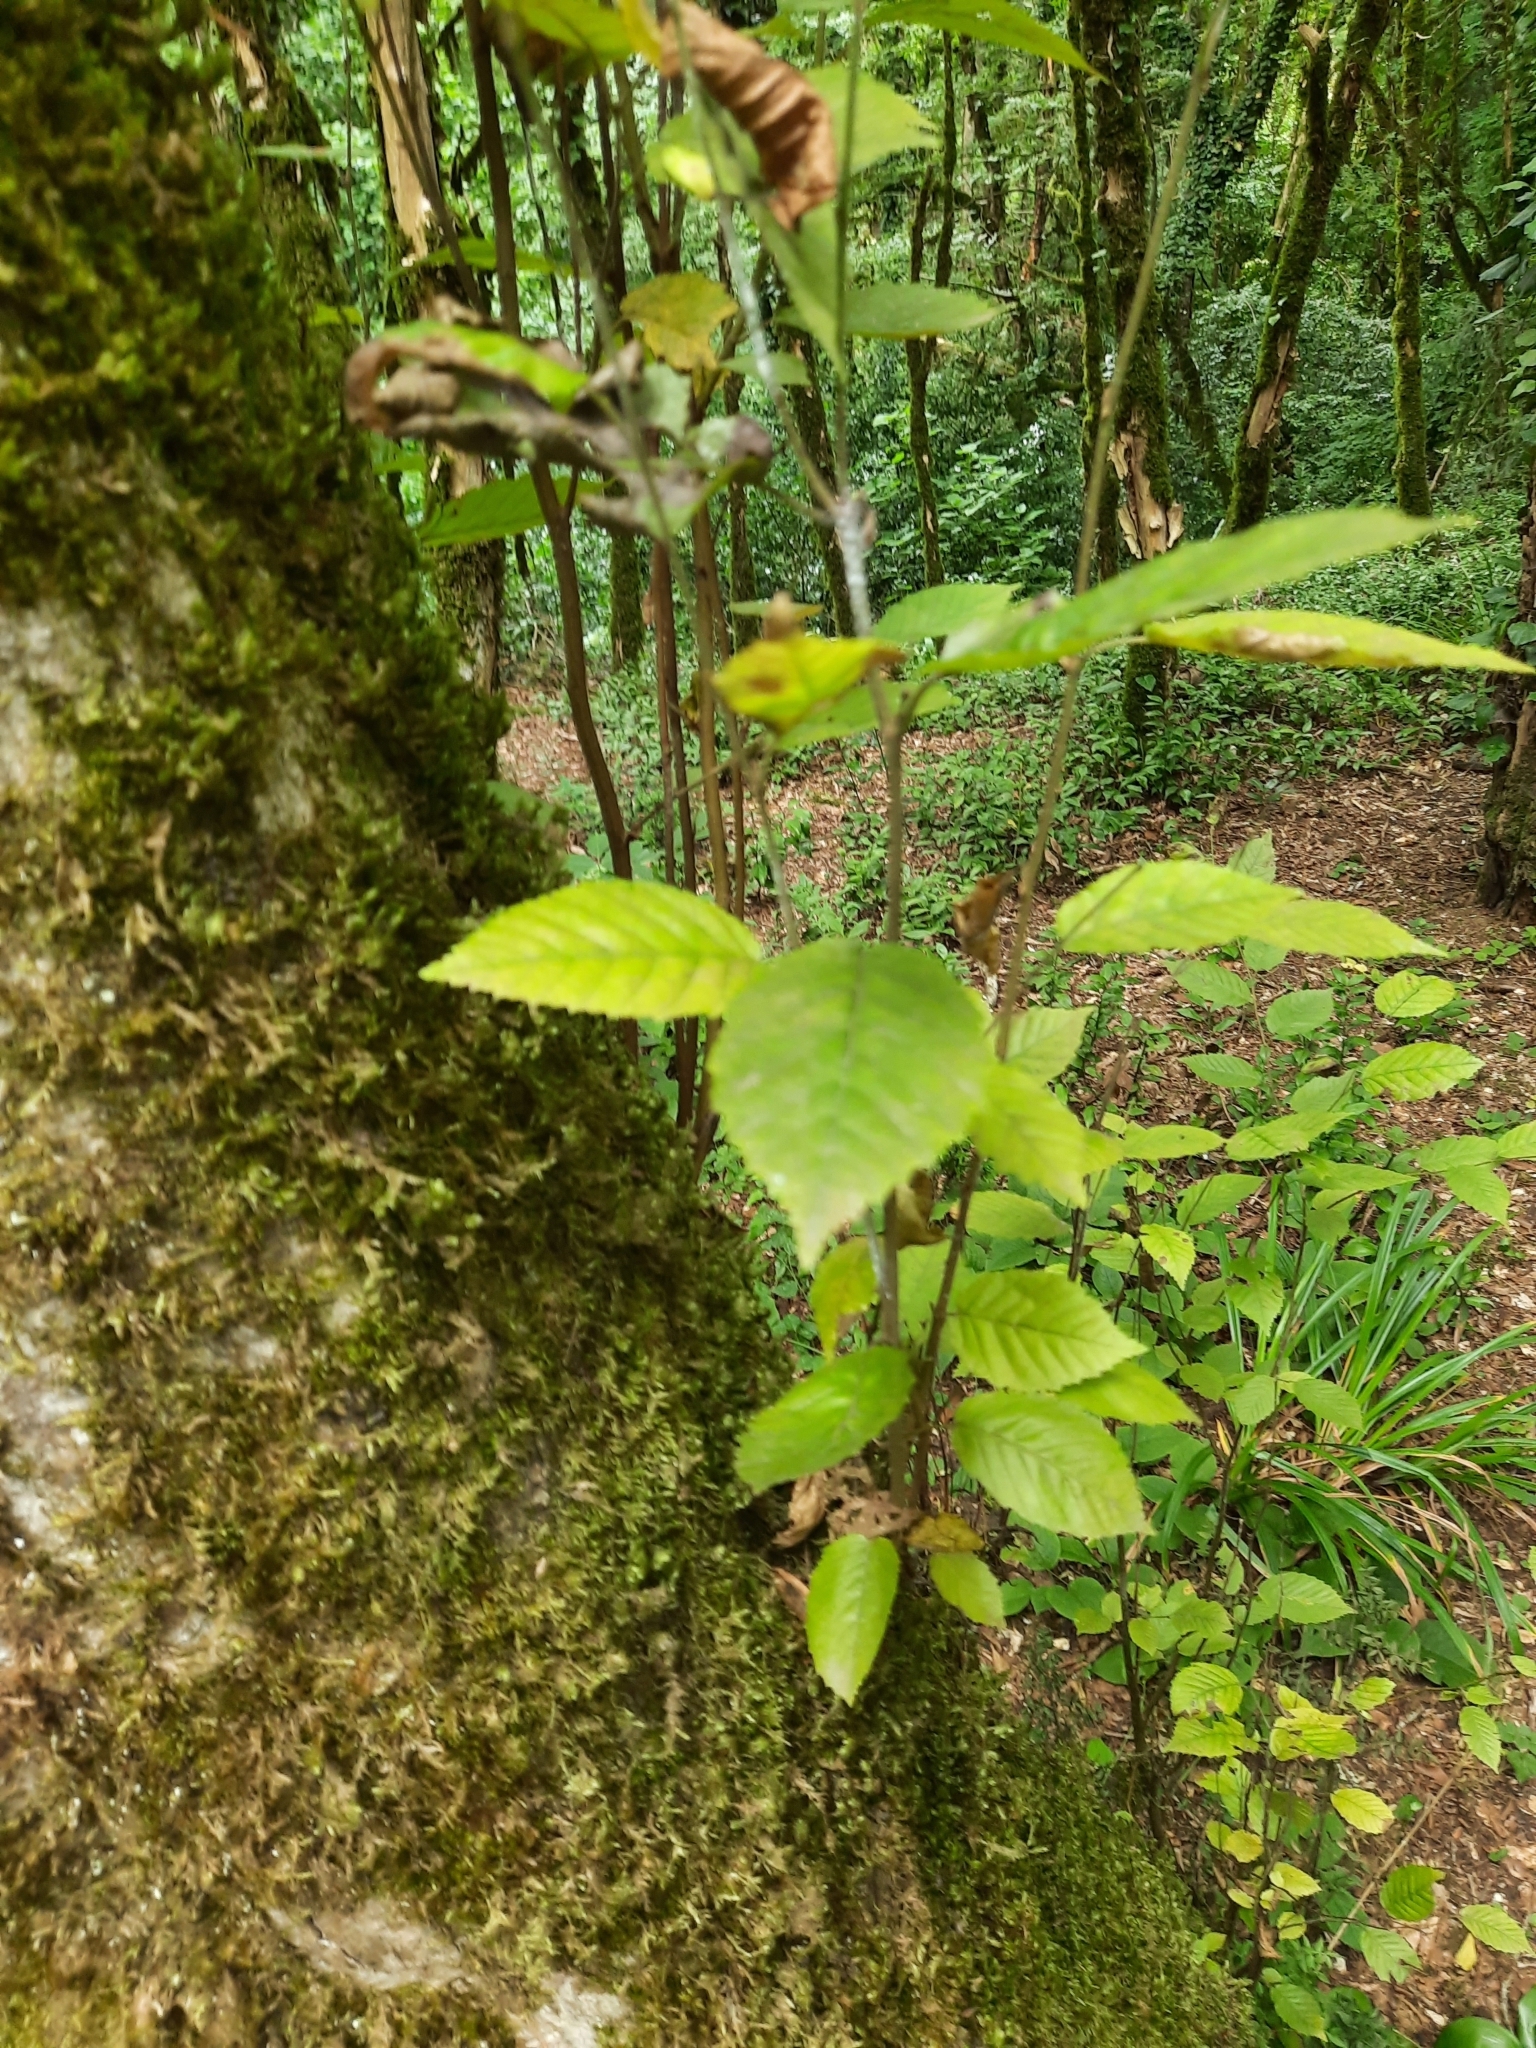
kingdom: Plantae
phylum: Tracheophyta
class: Magnoliopsida
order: Fagales
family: Betulaceae
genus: Carpinus
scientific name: Carpinus betulus
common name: Hornbeam
